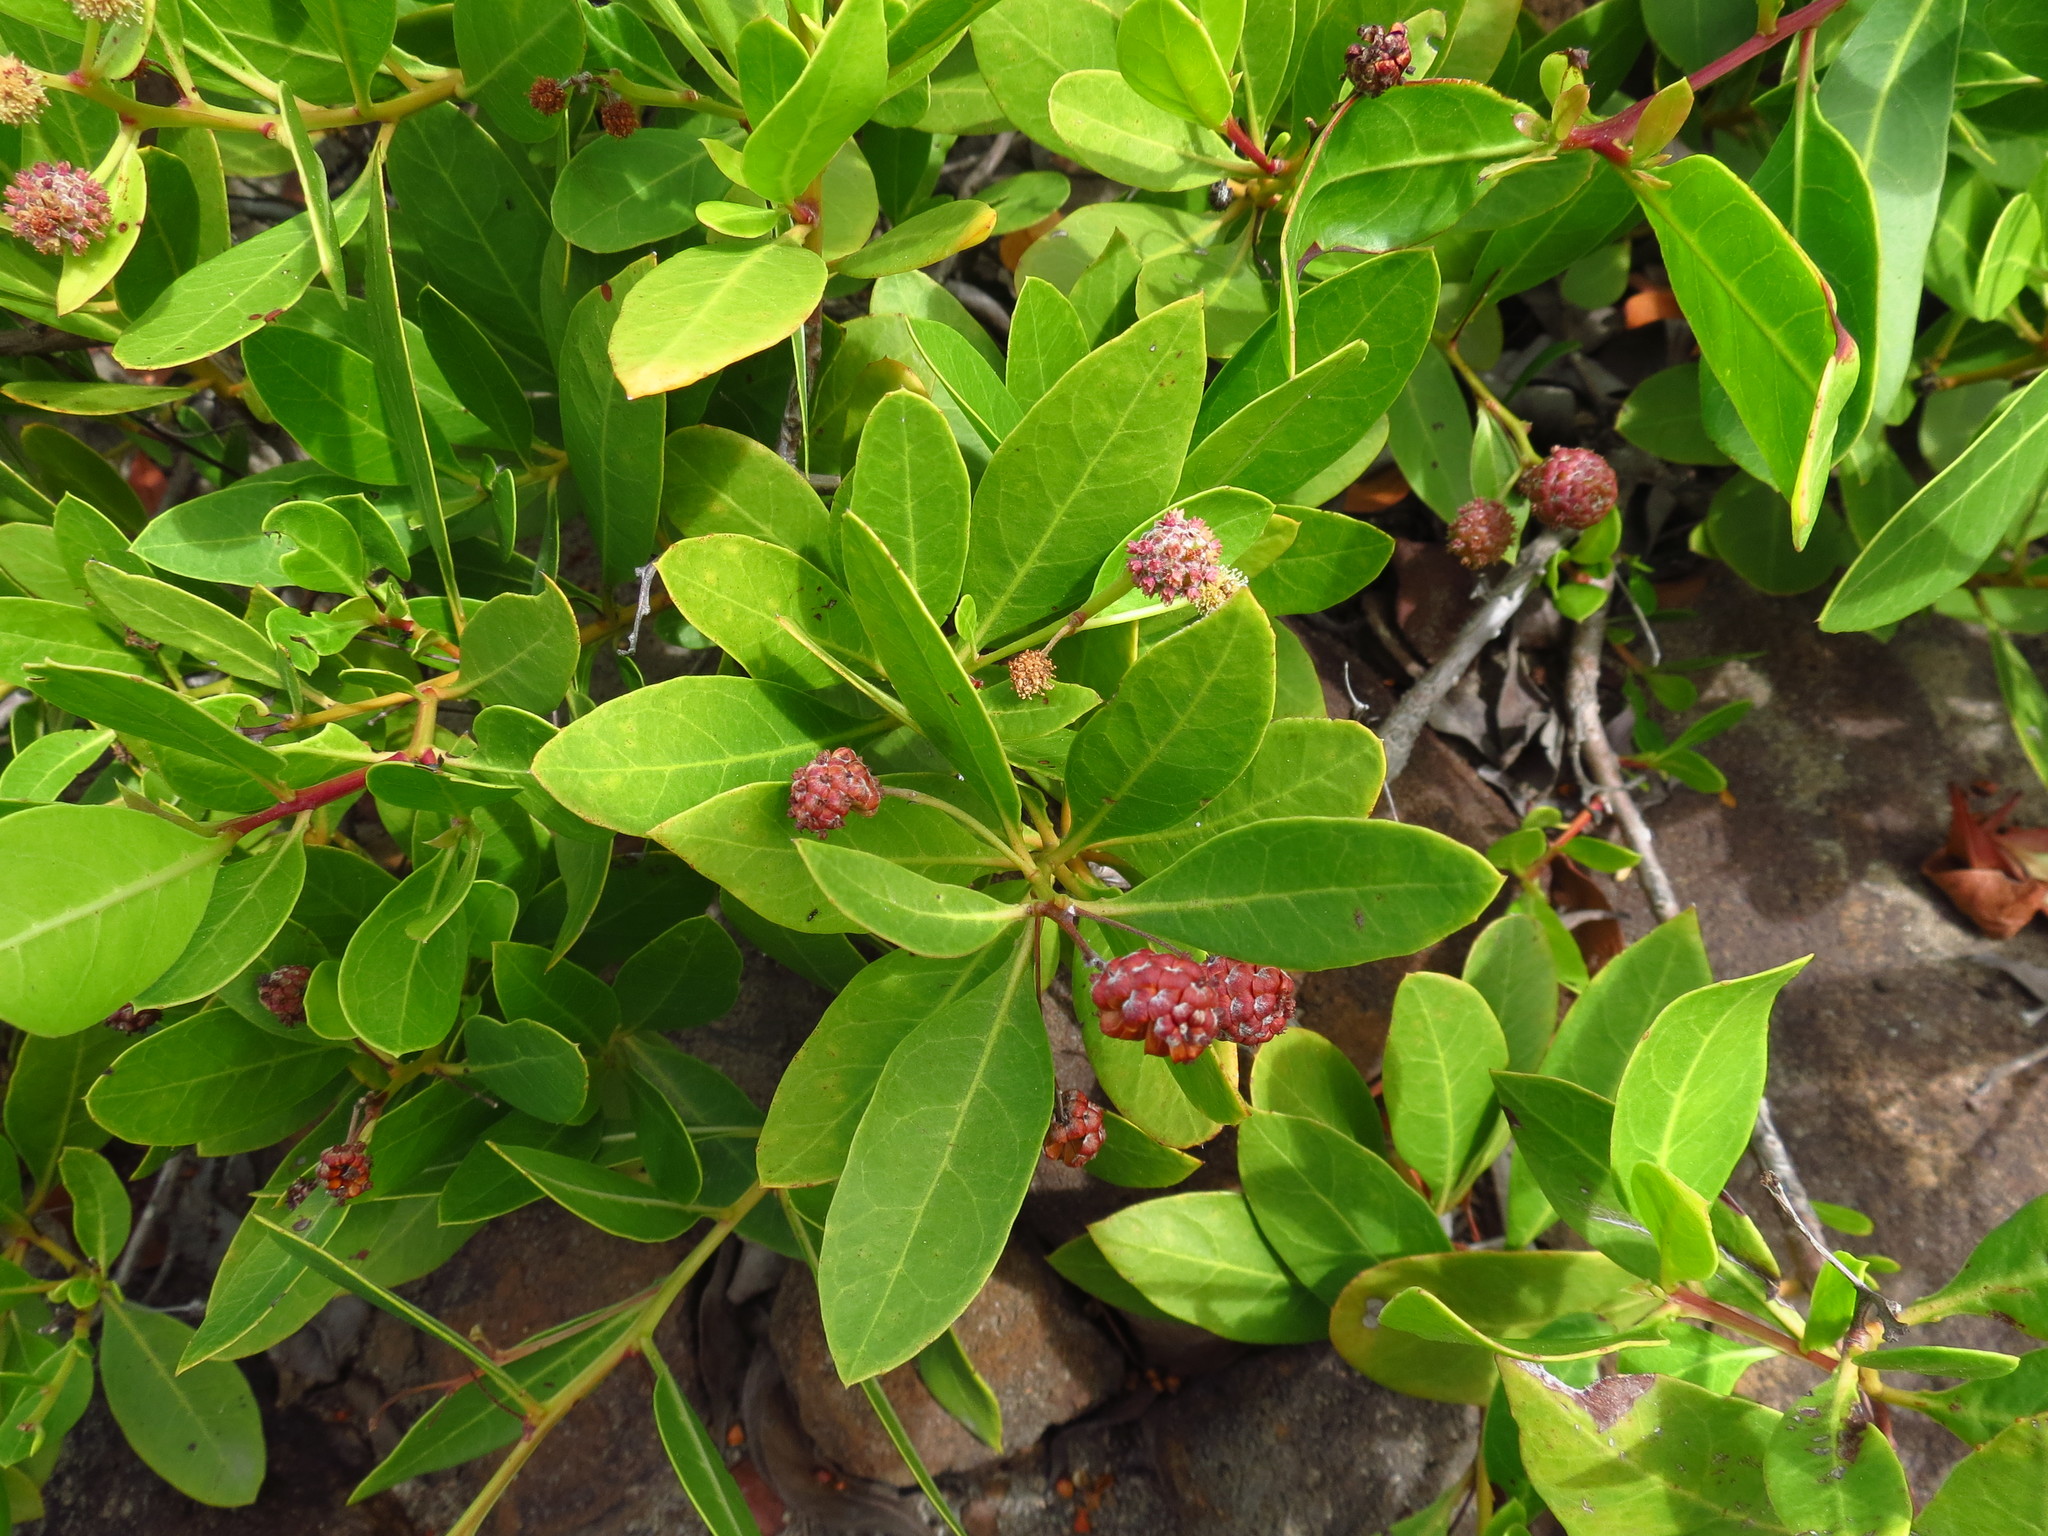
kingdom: Plantae
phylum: Tracheophyta
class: Magnoliopsida
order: Myrtales
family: Combretaceae
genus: Conocarpus
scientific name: Conocarpus erectus
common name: Button mangrove
